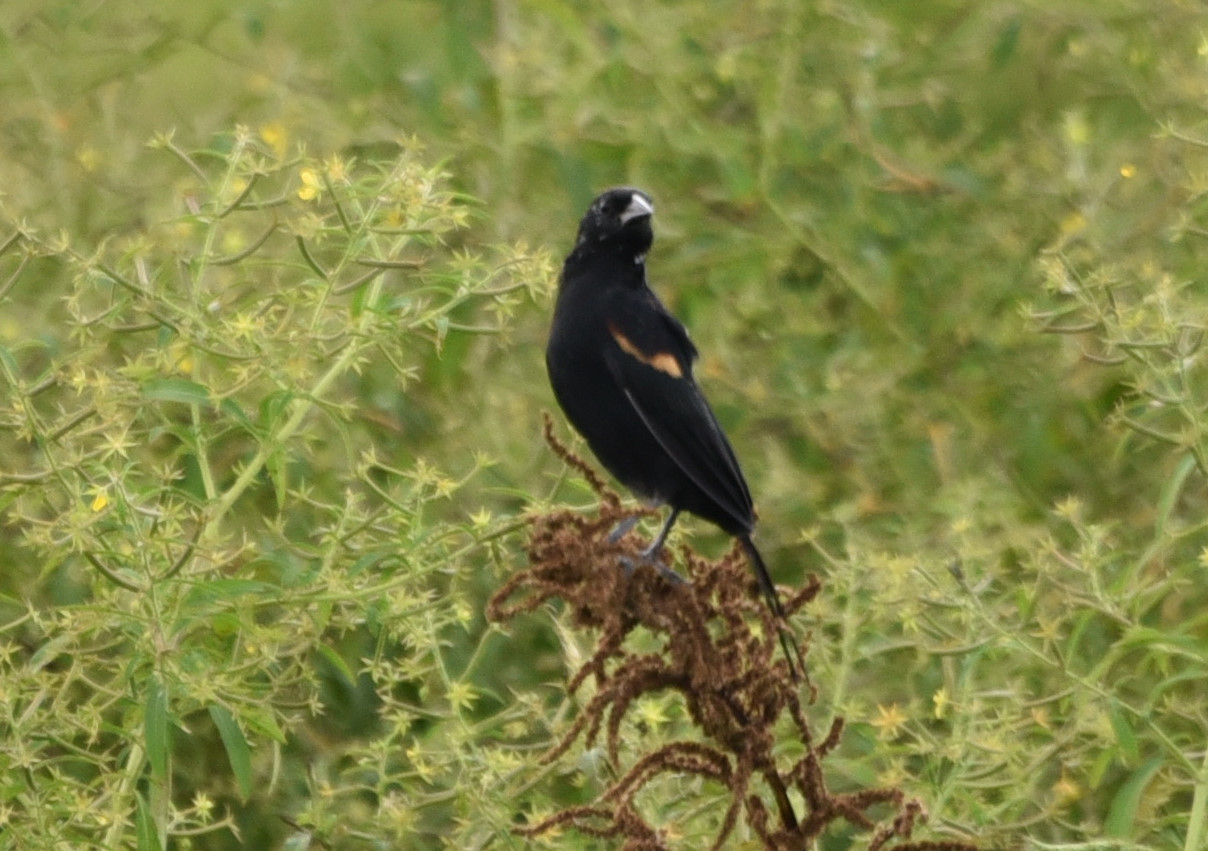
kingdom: Animalia
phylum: Chordata
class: Aves
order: Passeriformes
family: Icteridae
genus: Agelaius
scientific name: Agelaius phoeniceus
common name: Red-winged blackbird
